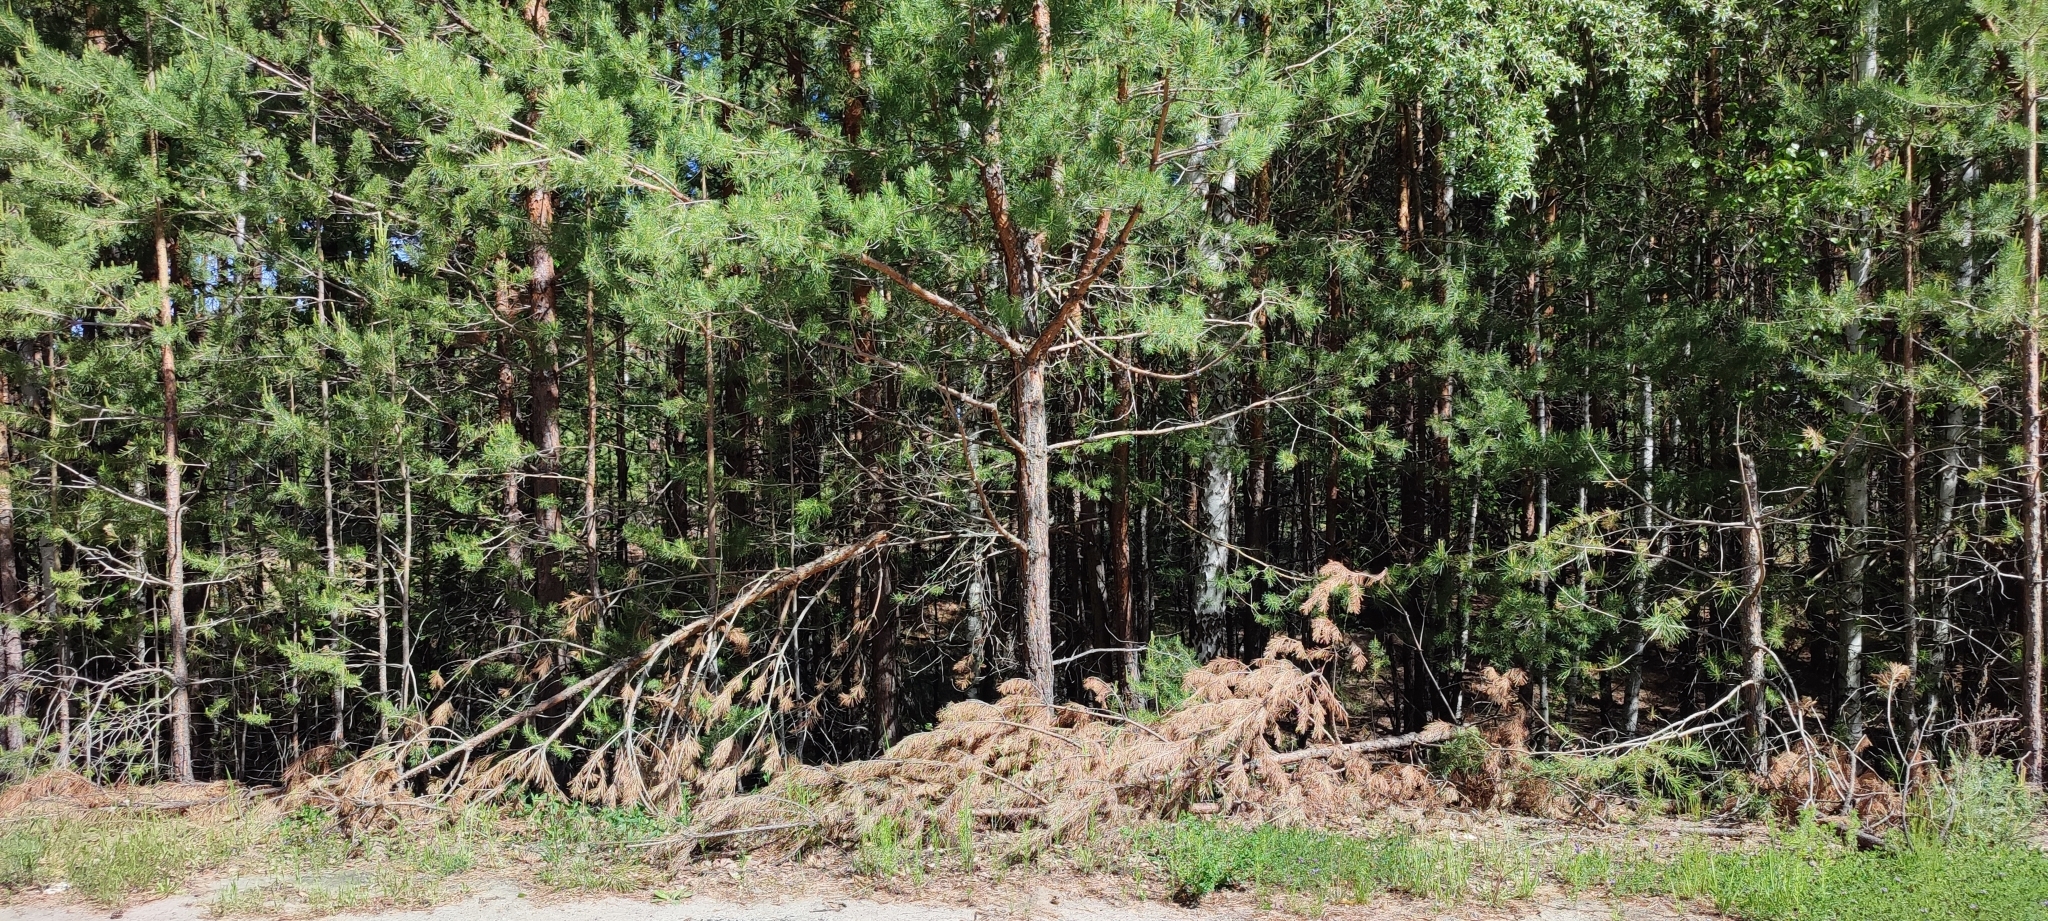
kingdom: Plantae
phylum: Tracheophyta
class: Pinopsida
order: Pinales
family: Pinaceae
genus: Pinus
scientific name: Pinus sylvestris
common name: Scots pine
